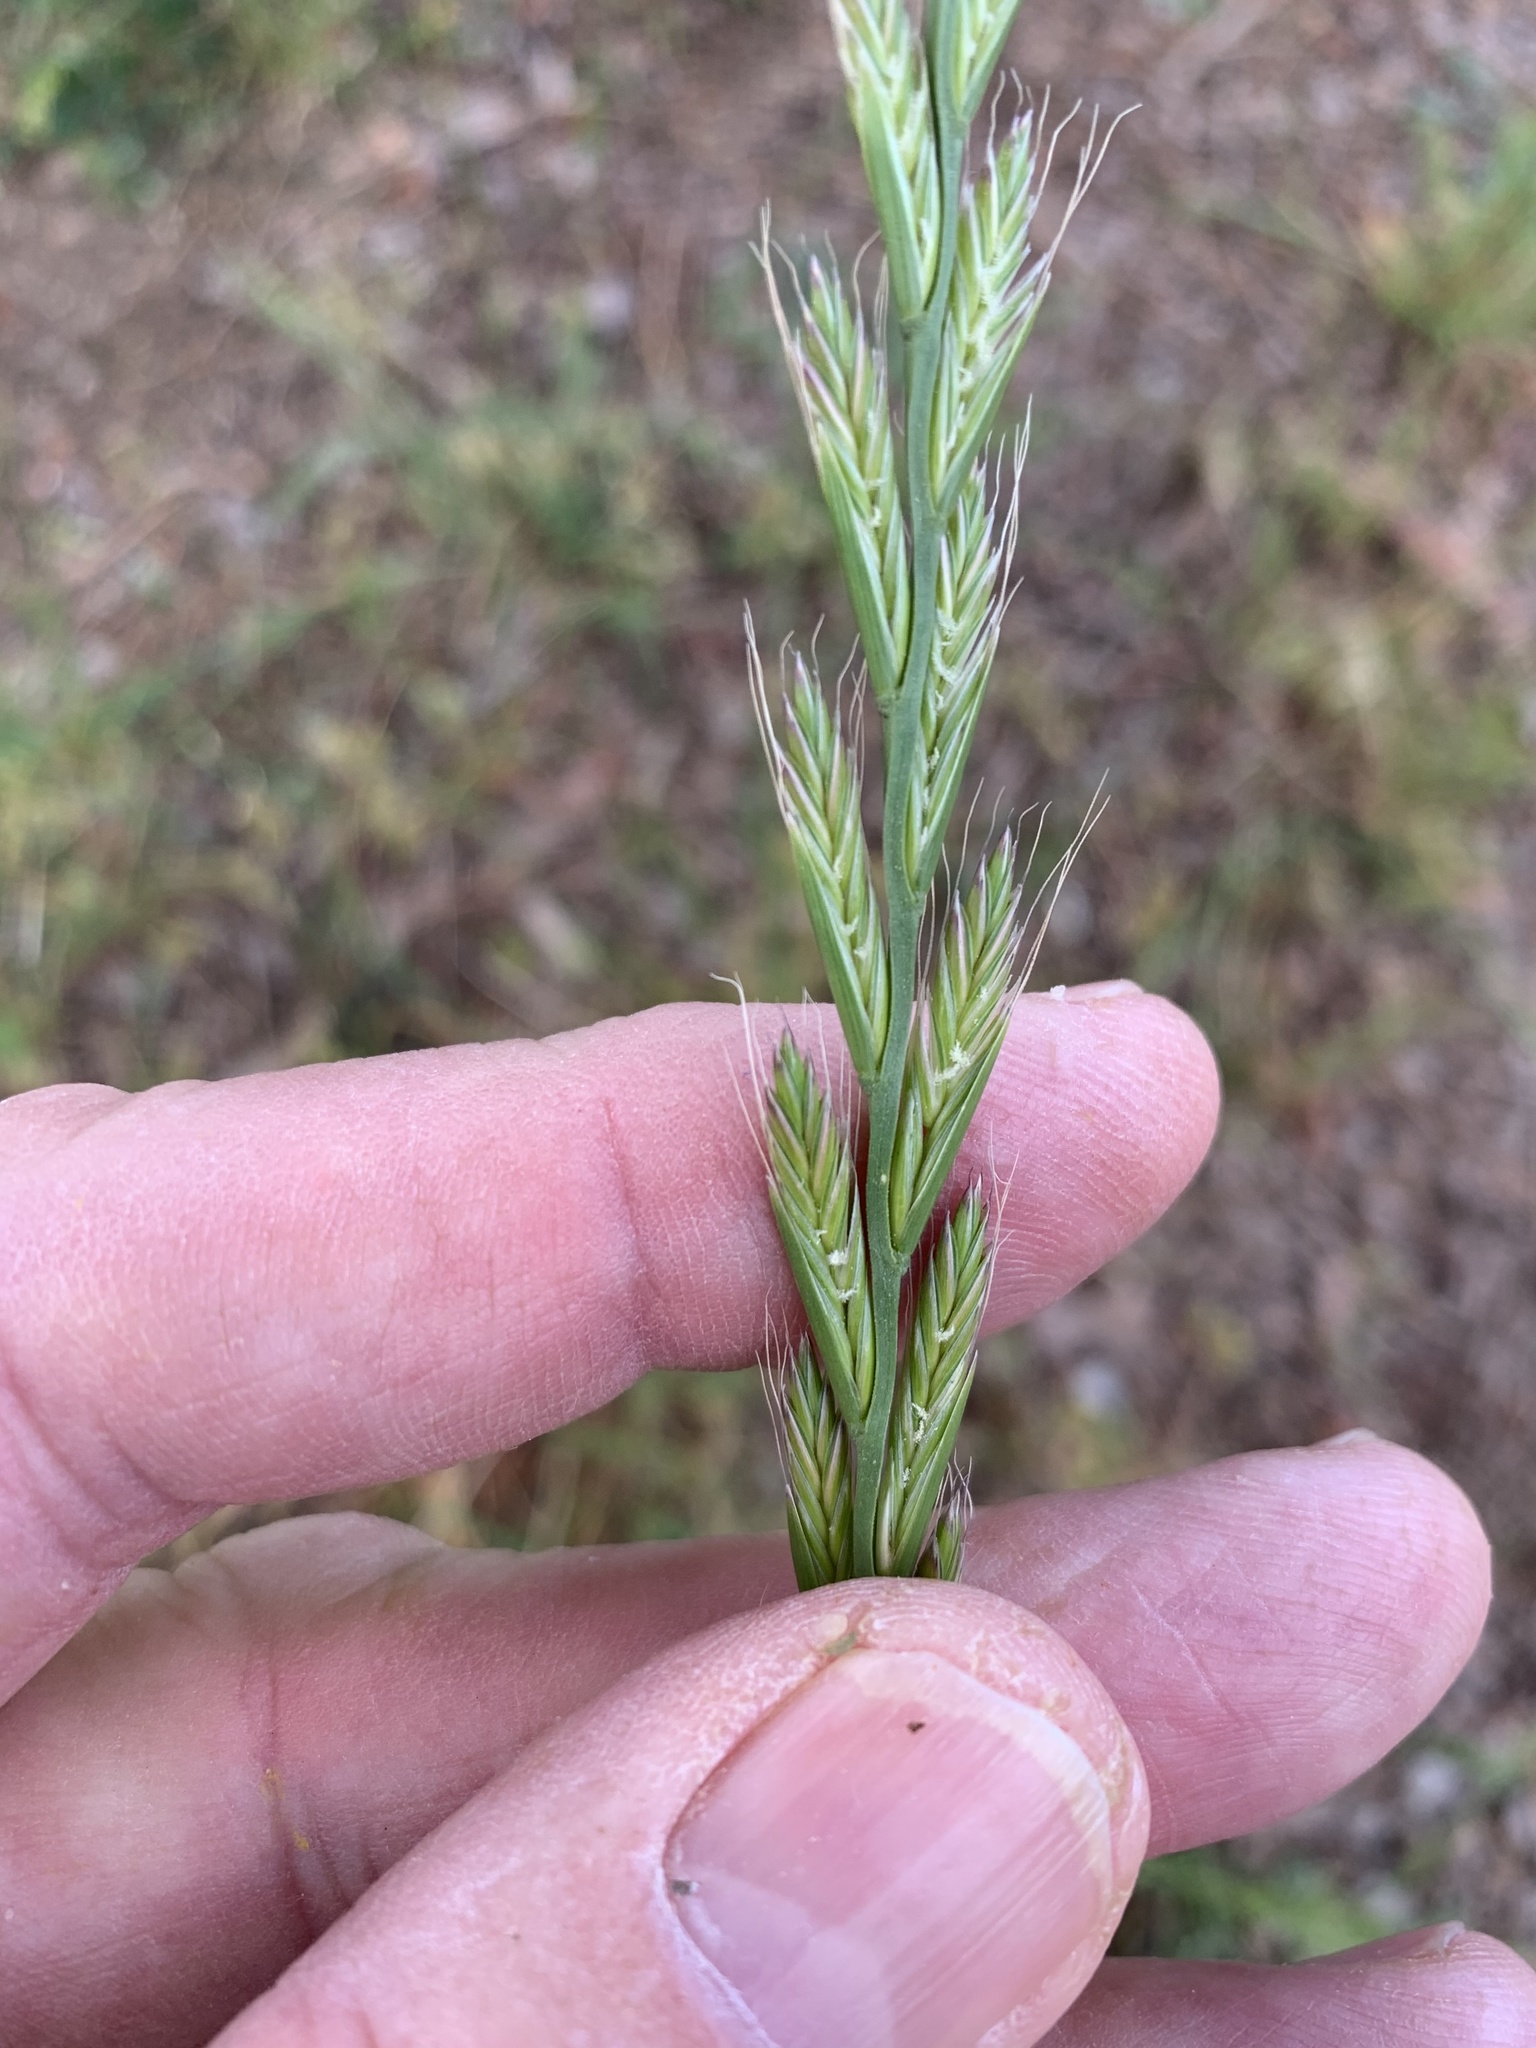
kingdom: Plantae
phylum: Tracheophyta
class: Liliopsida
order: Poales
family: Poaceae
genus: Lolium
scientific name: Lolium multiflorum
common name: Annual ryegrass
